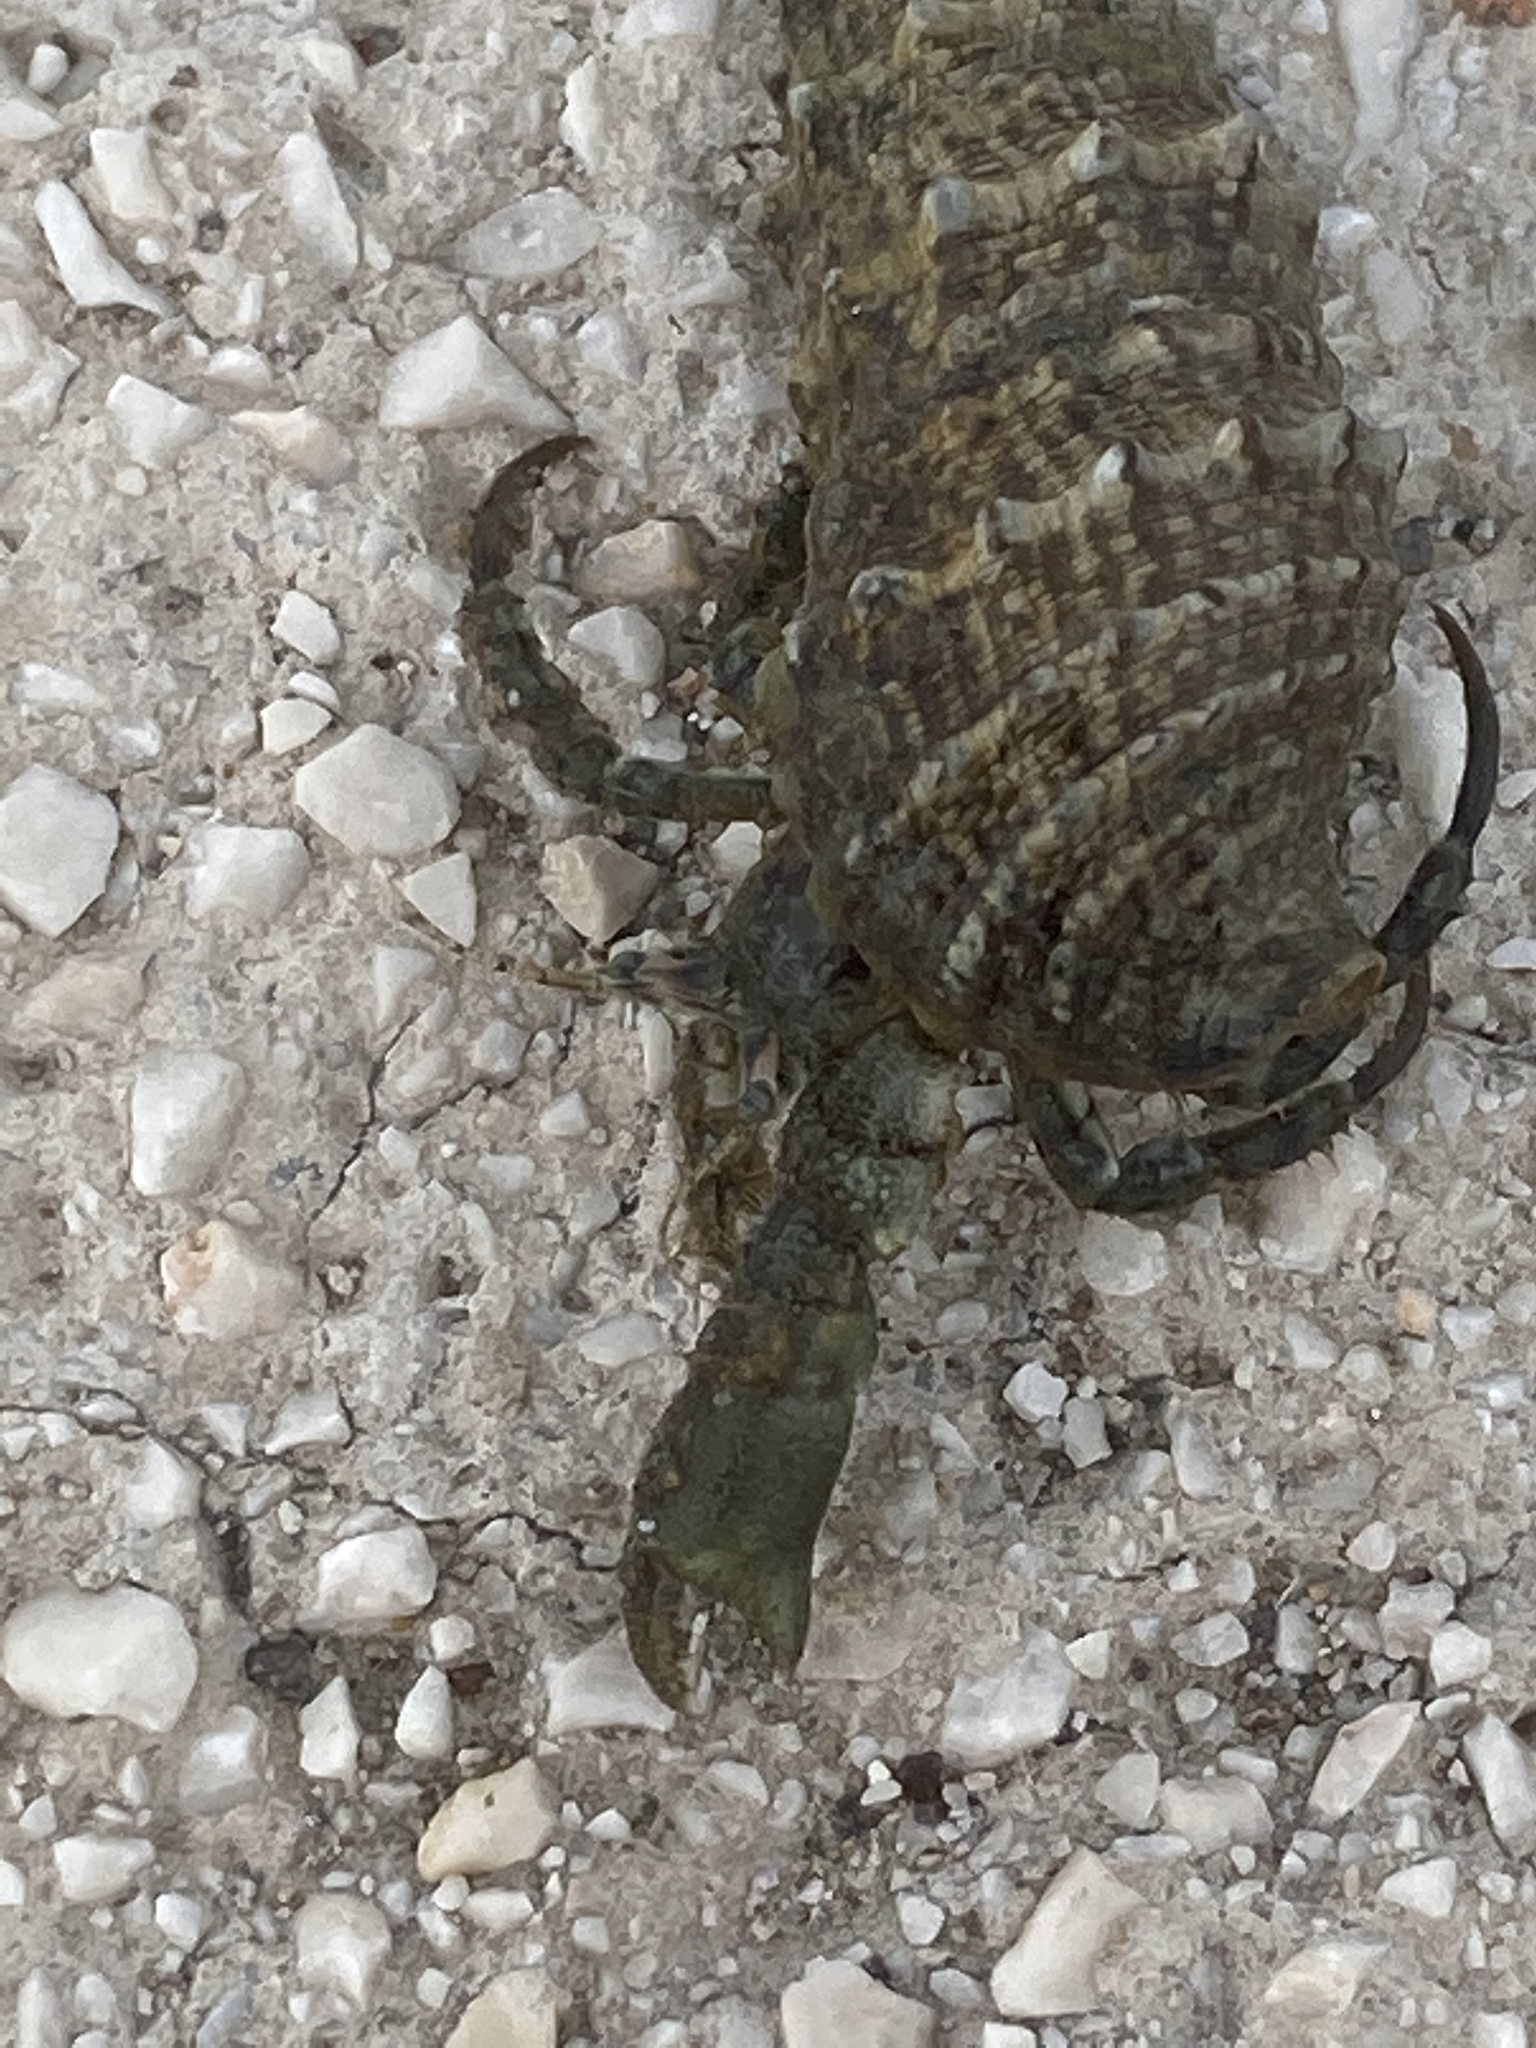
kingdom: Animalia
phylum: Arthropoda
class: Malacostraca
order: Decapoda
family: Diogenidae
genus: Diogenes
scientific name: Diogenes pugilator
